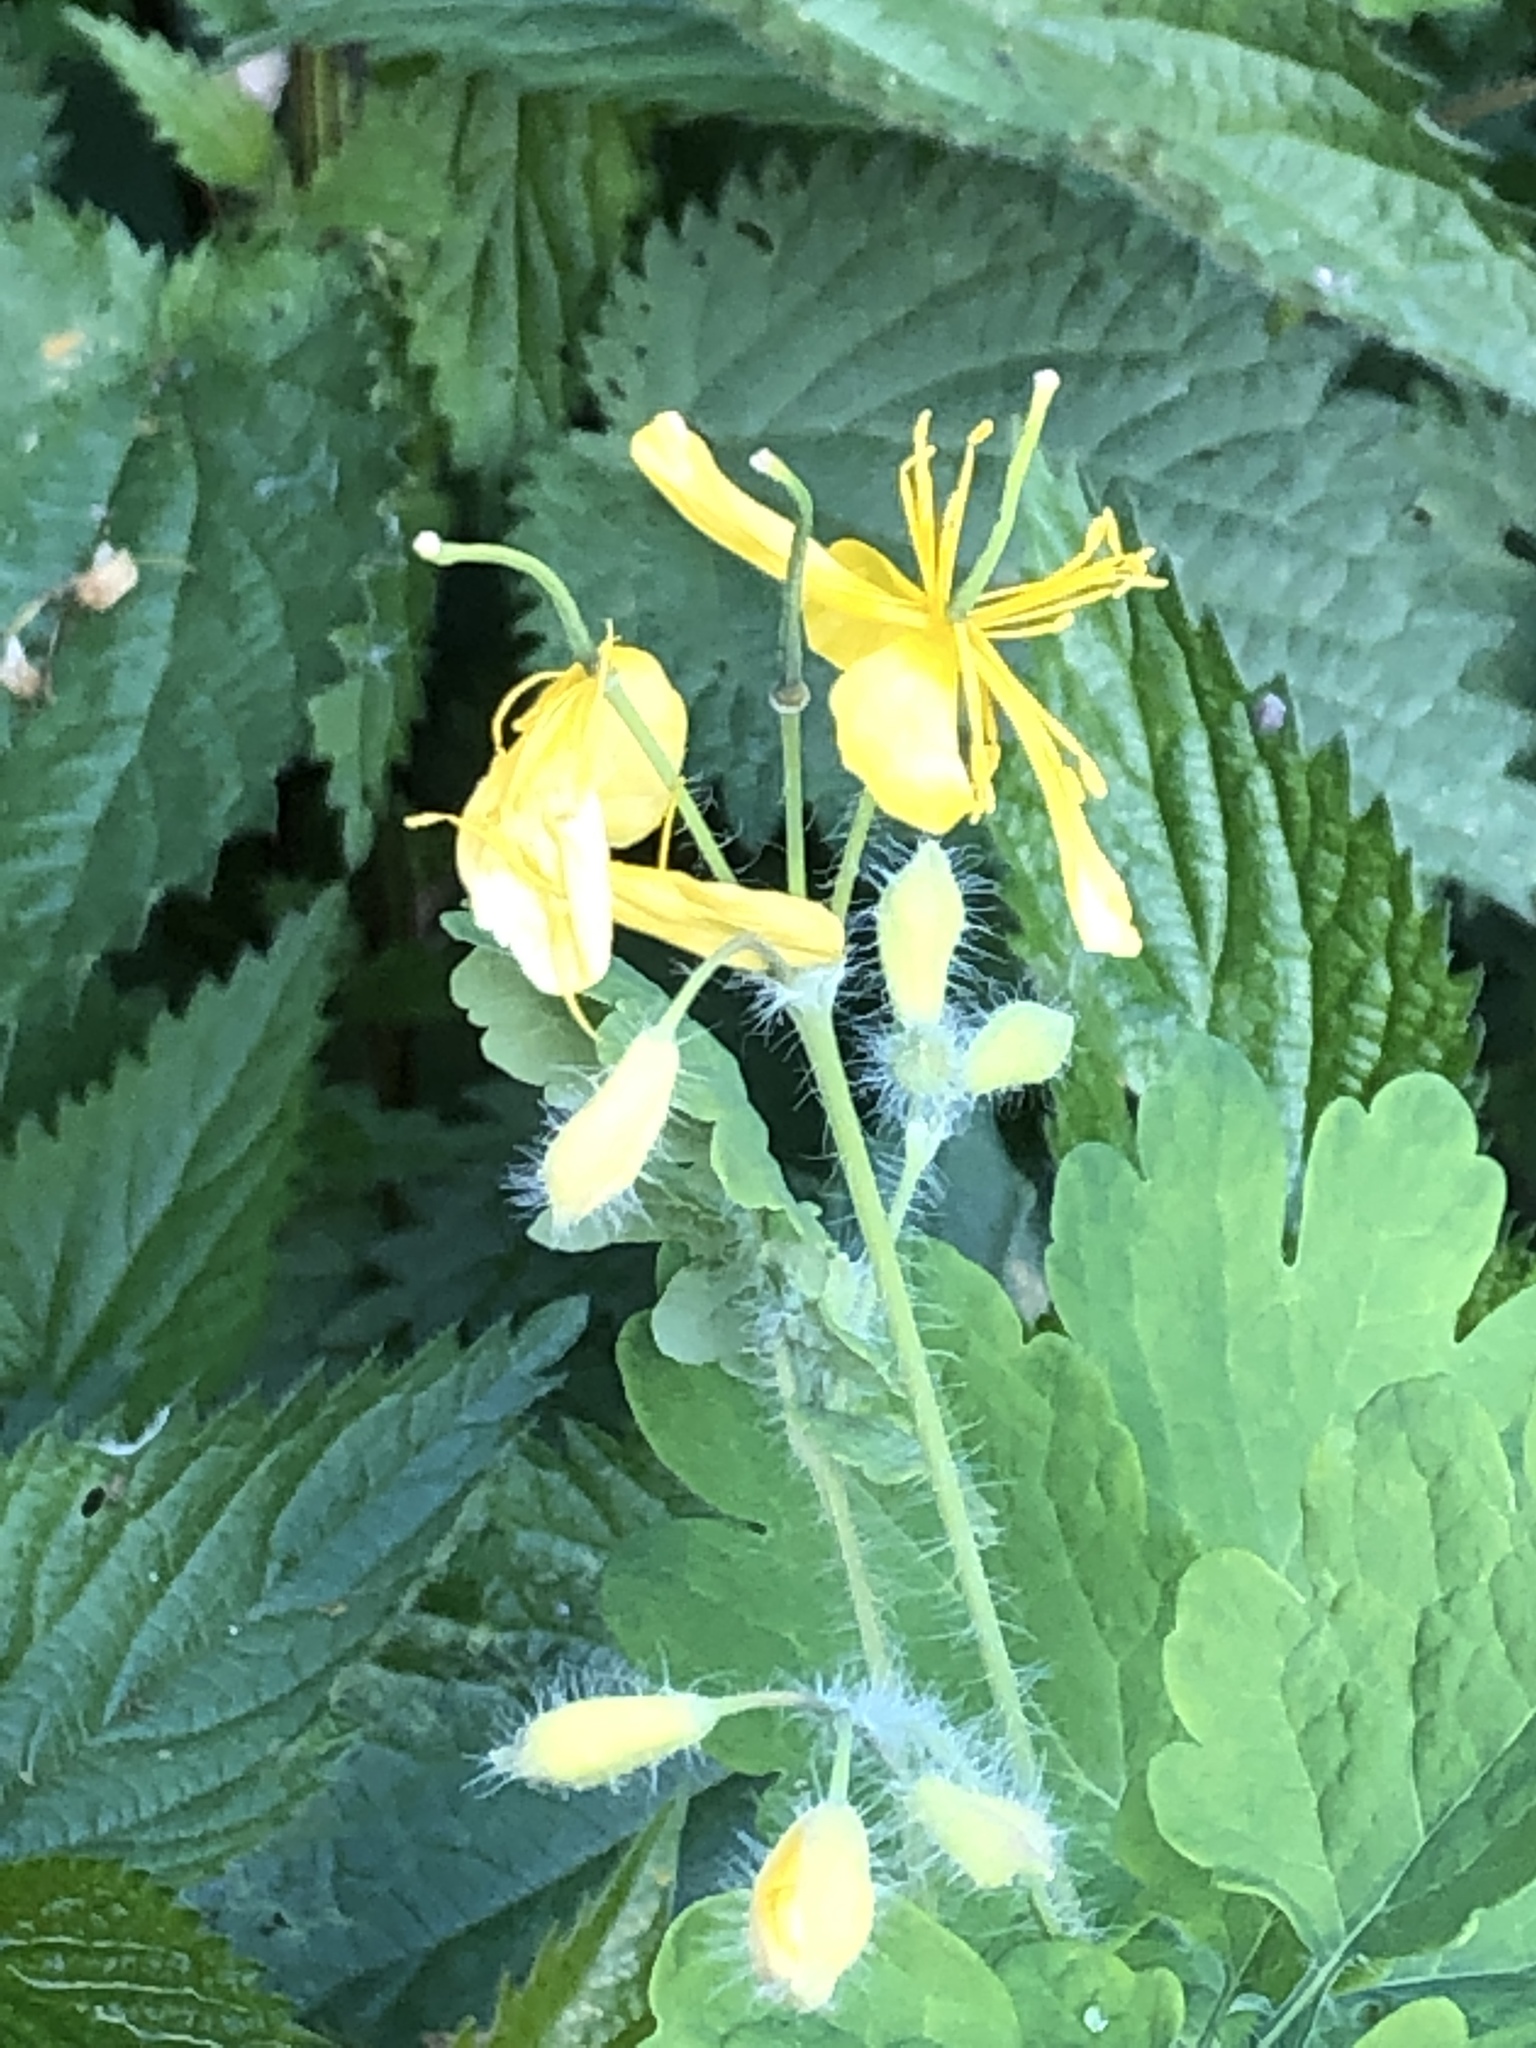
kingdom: Plantae
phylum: Tracheophyta
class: Magnoliopsida
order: Ranunculales
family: Papaveraceae
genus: Chelidonium
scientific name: Chelidonium majus
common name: Greater celandine
